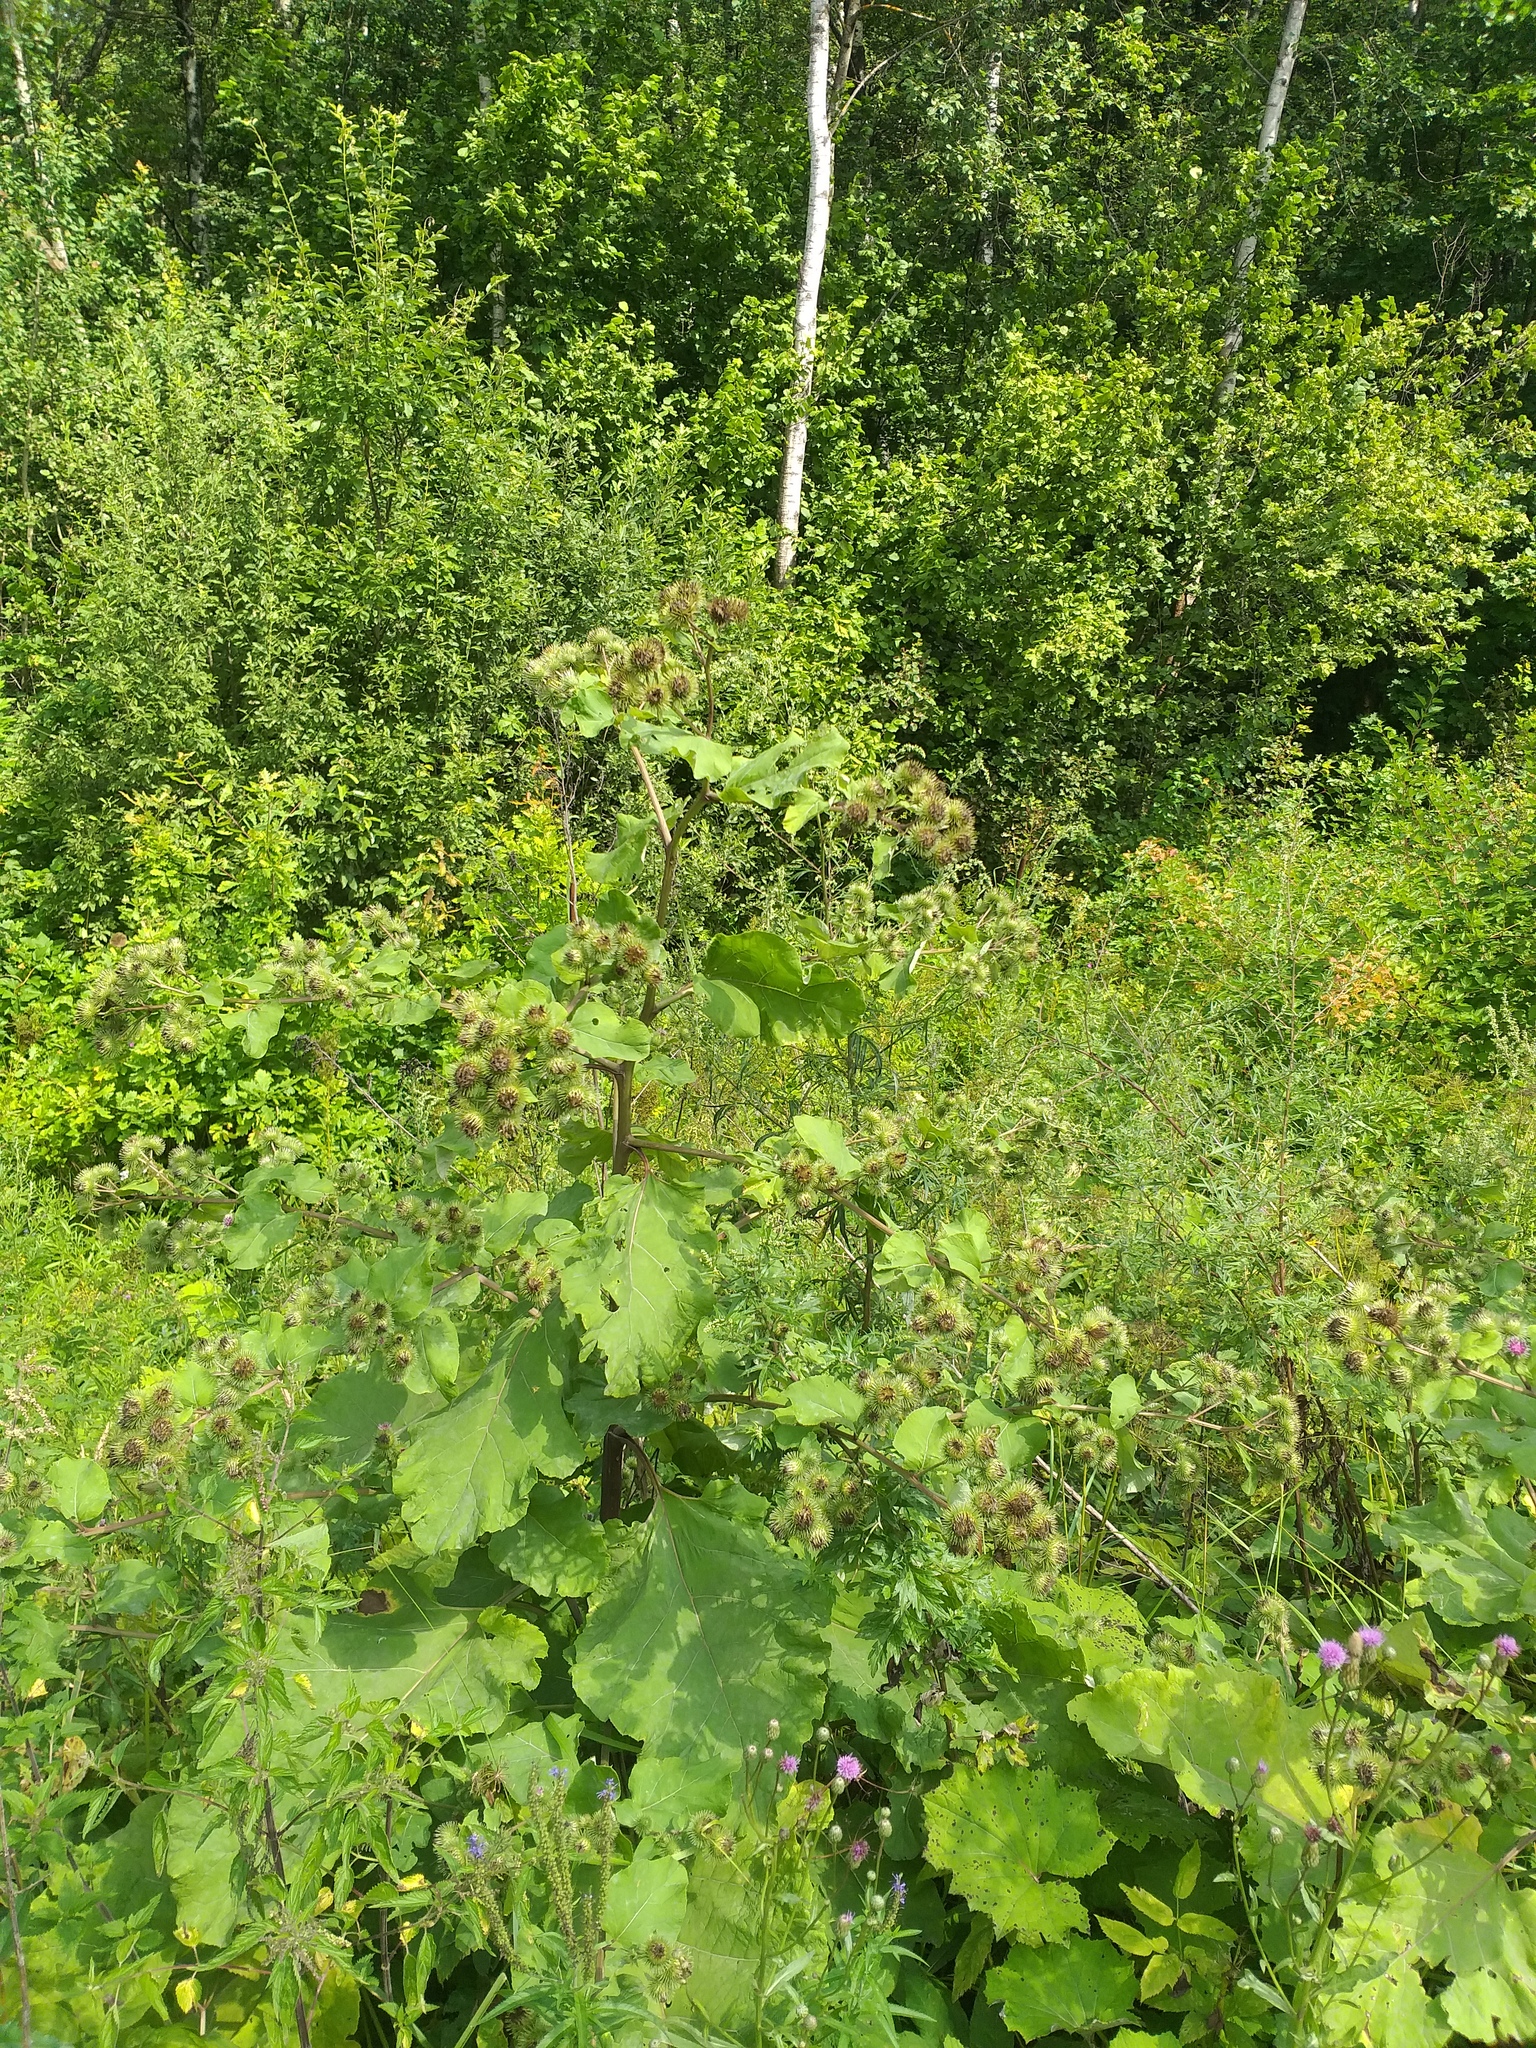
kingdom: Plantae
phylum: Tracheophyta
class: Magnoliopsida
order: Asterales
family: Asteraceae
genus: Arctium
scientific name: Arctium lappa
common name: Greater burdock
